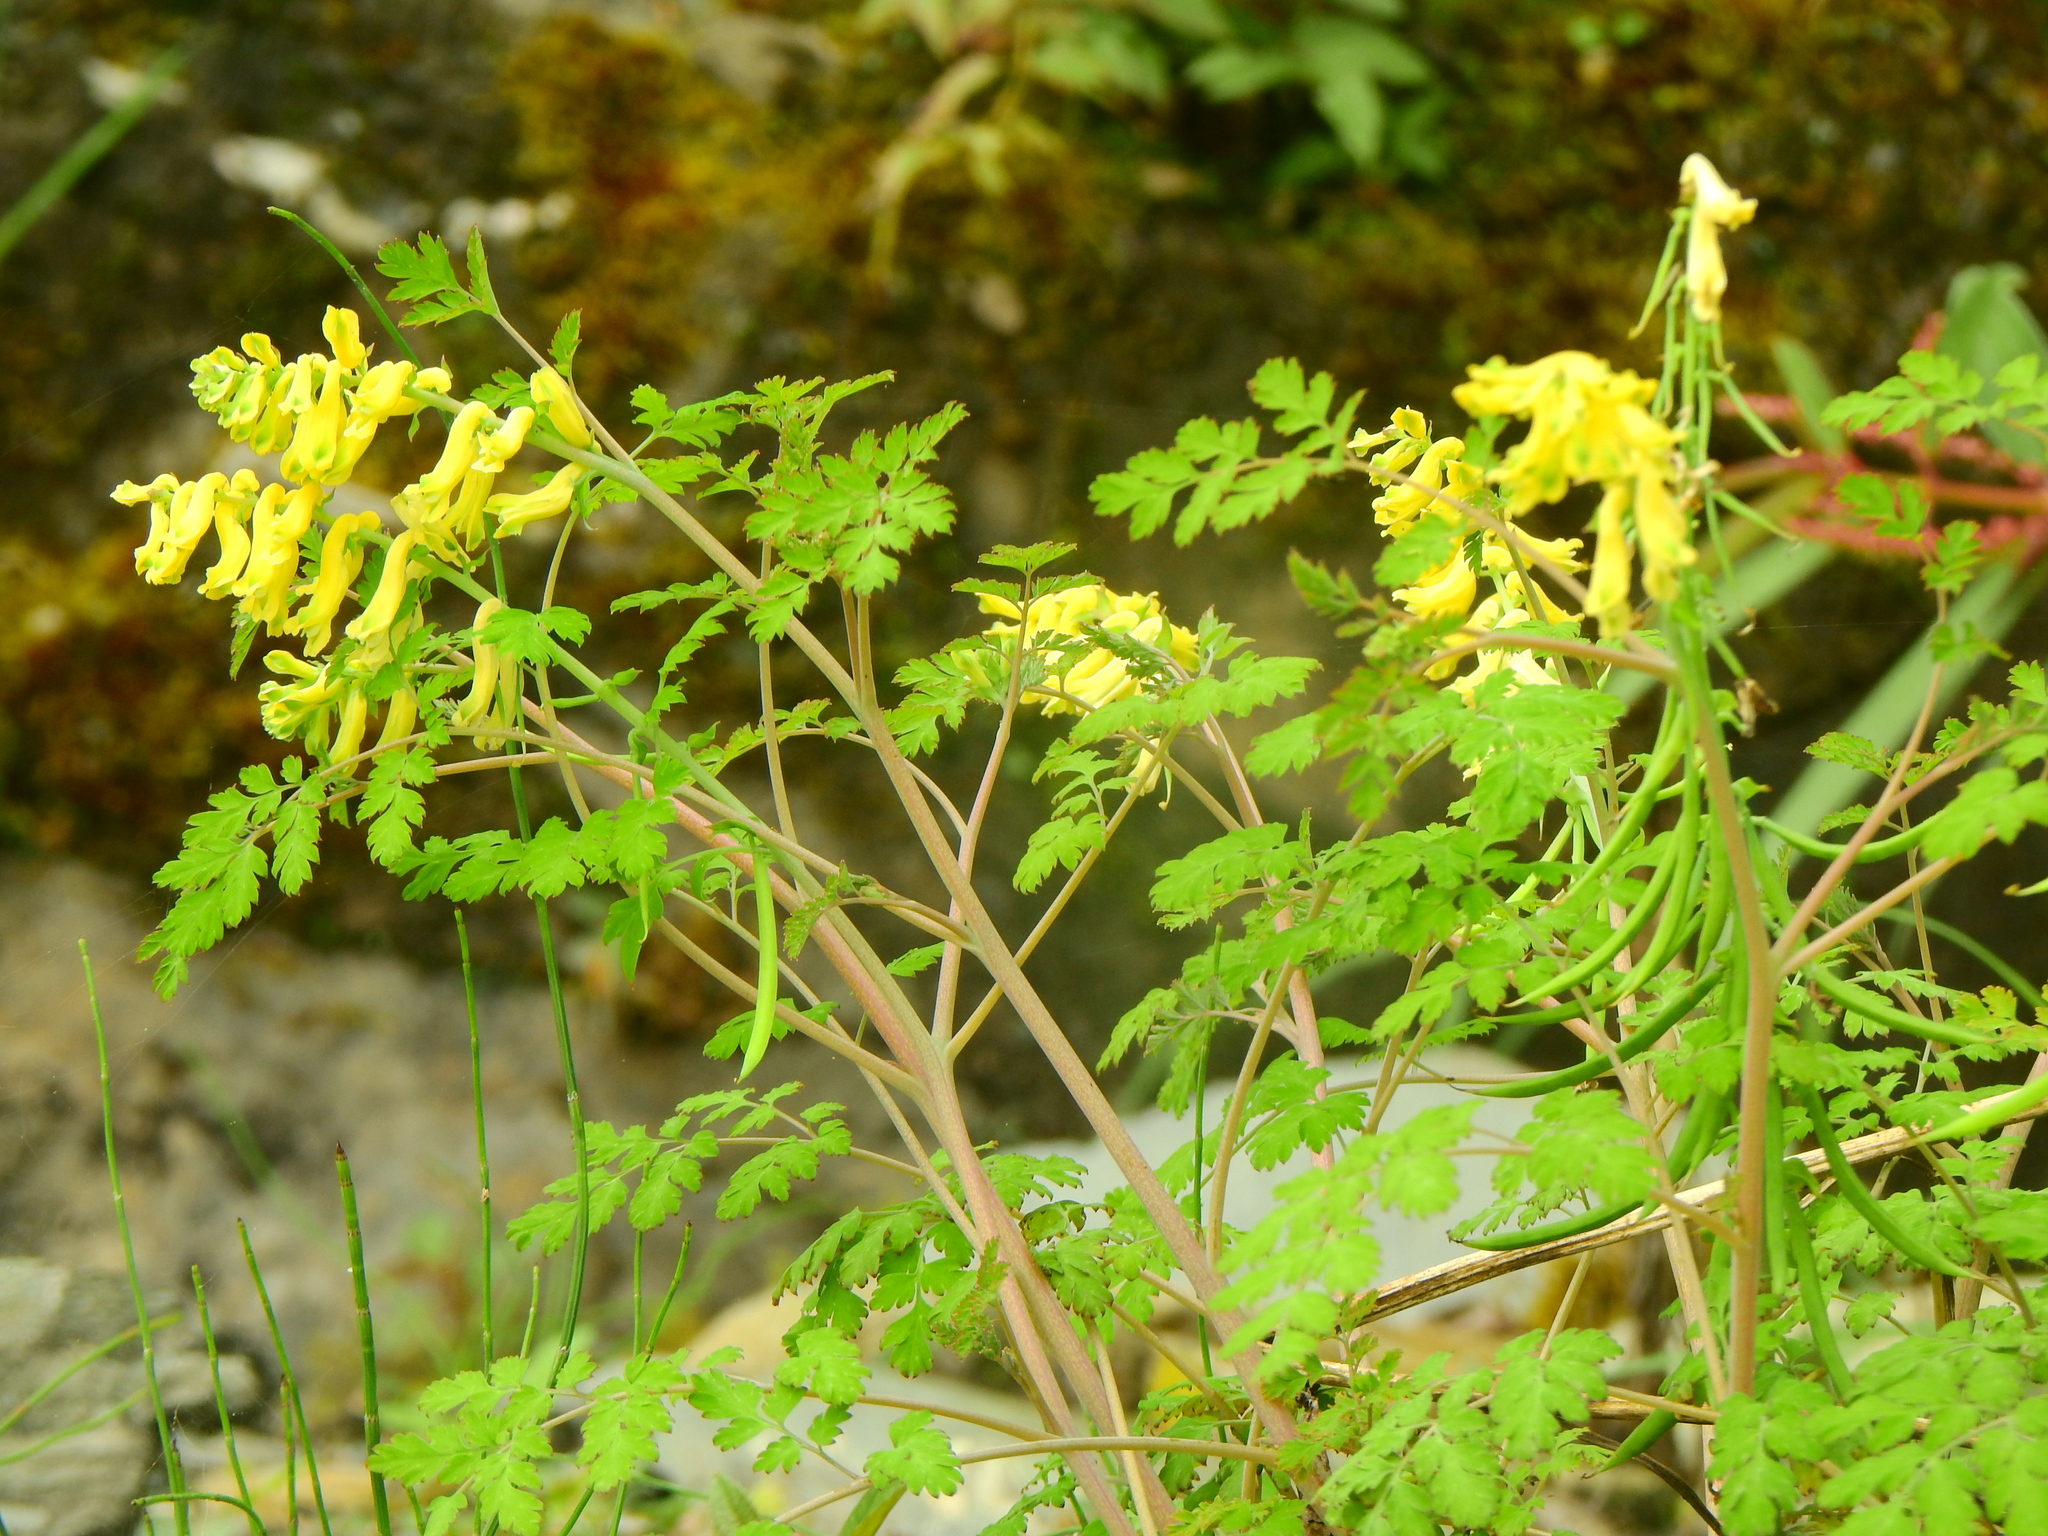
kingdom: Plantae
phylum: Tracheophyta
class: Magnoliopsida
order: Ranunculales
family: Papaveraceae
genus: Corydalis
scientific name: Corydalis balansae
